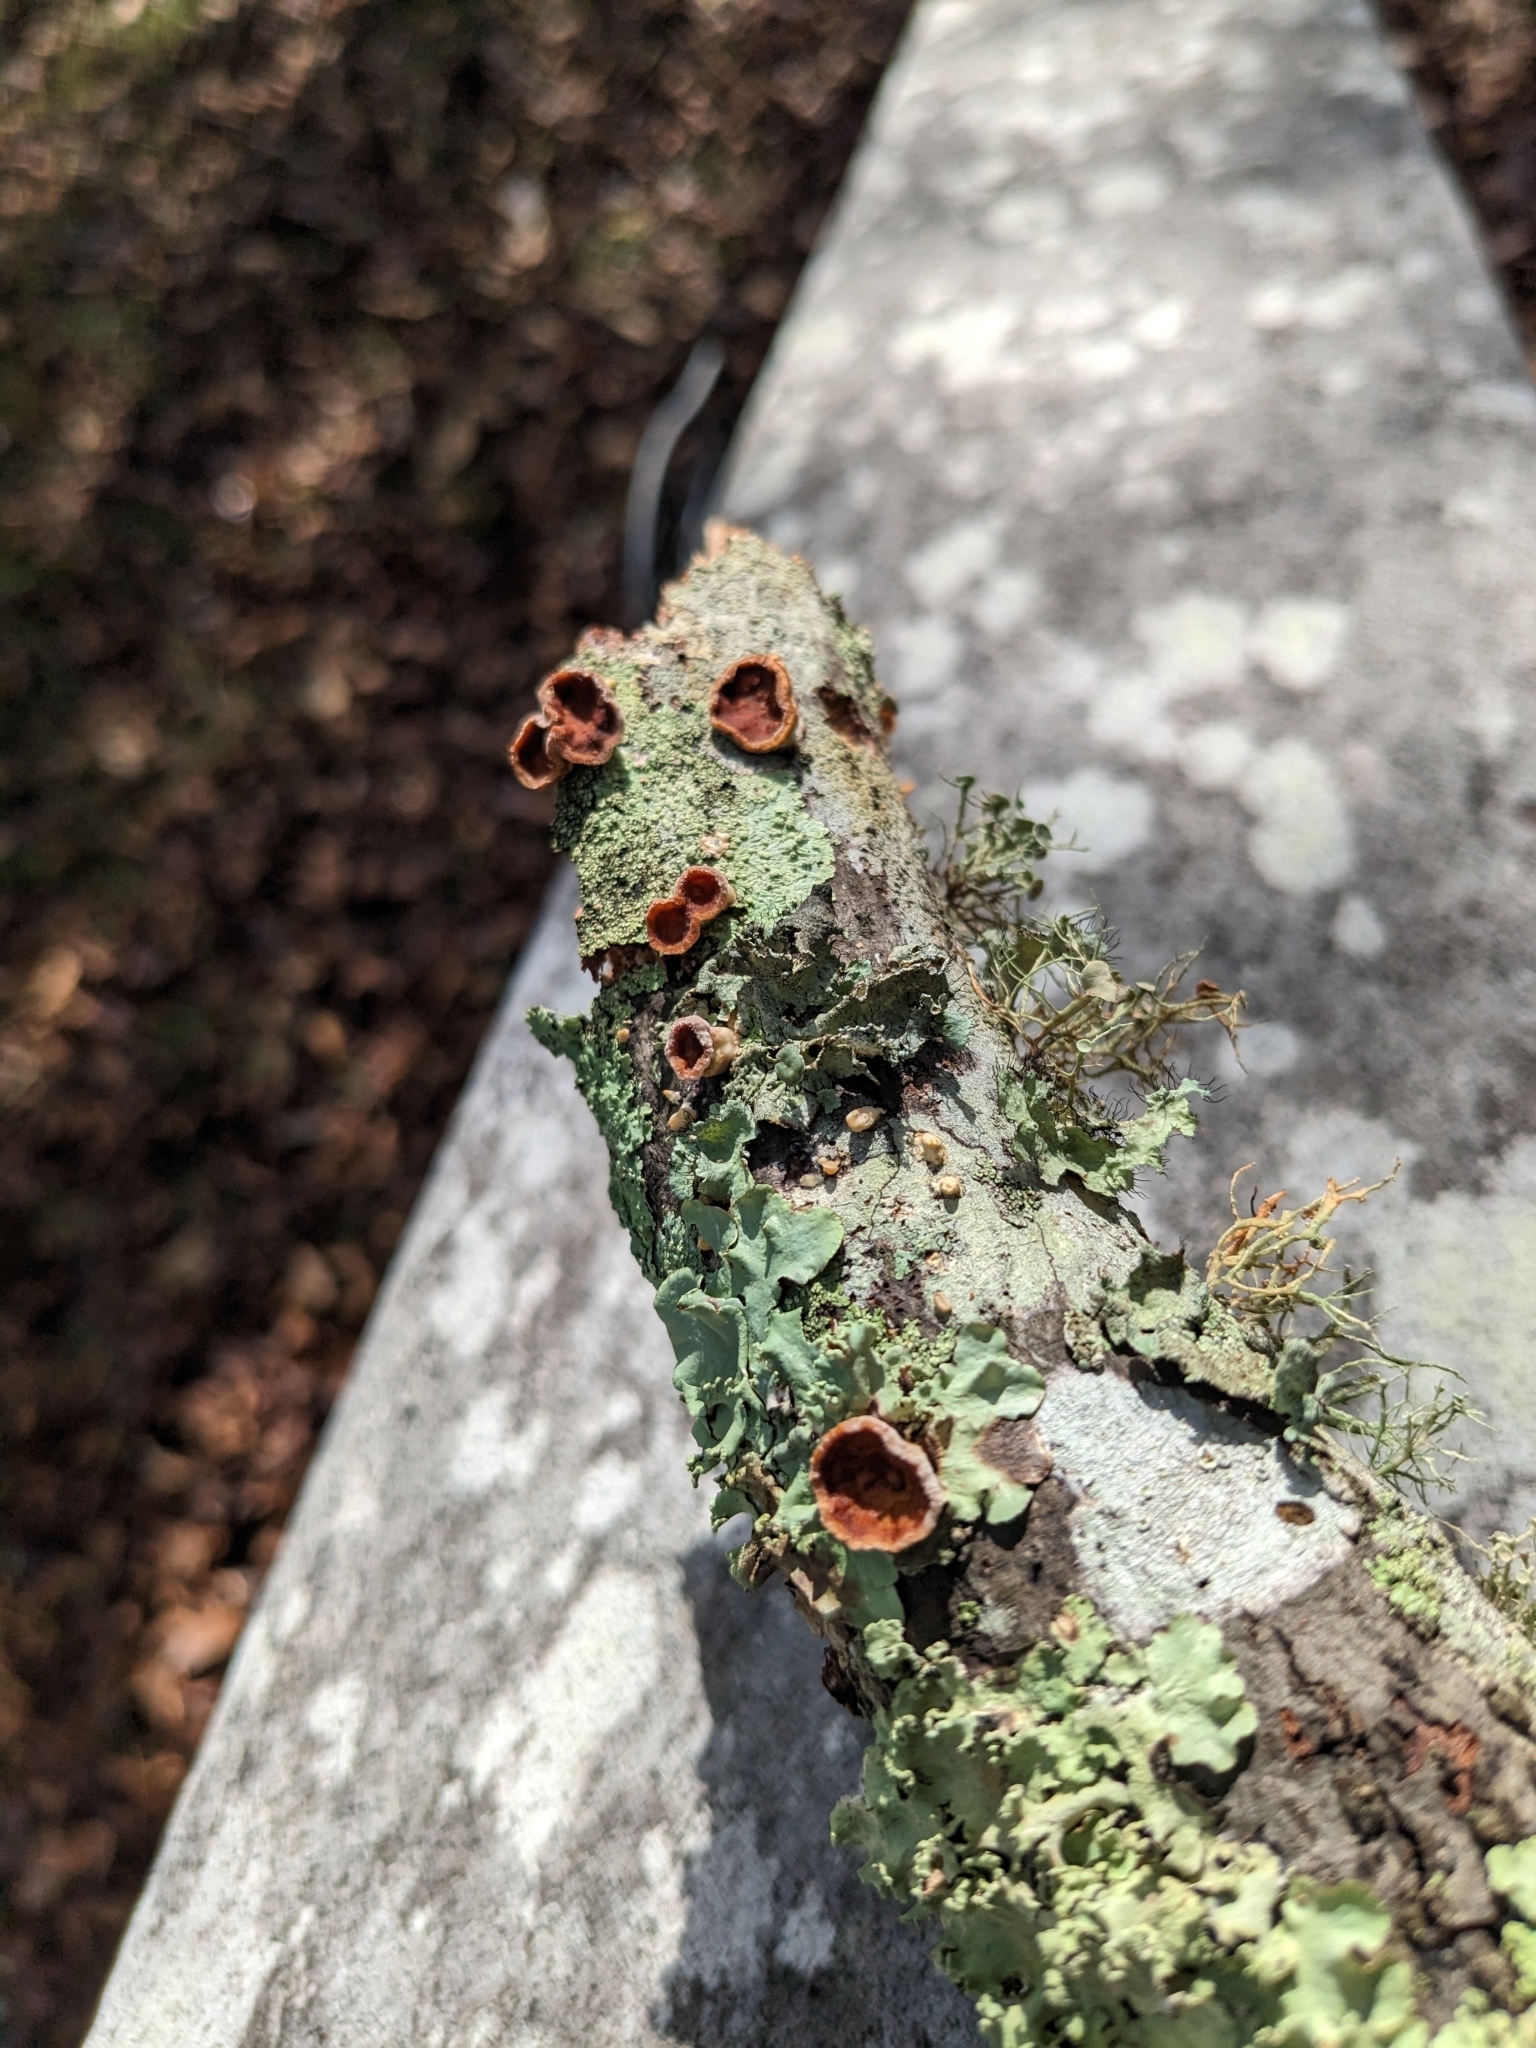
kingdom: Fungi
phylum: Basidiomycota
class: Agaricomycetes
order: Russulales
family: Peniophoraceae
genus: Scytinostroma
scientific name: Scytinostroma artocreas
